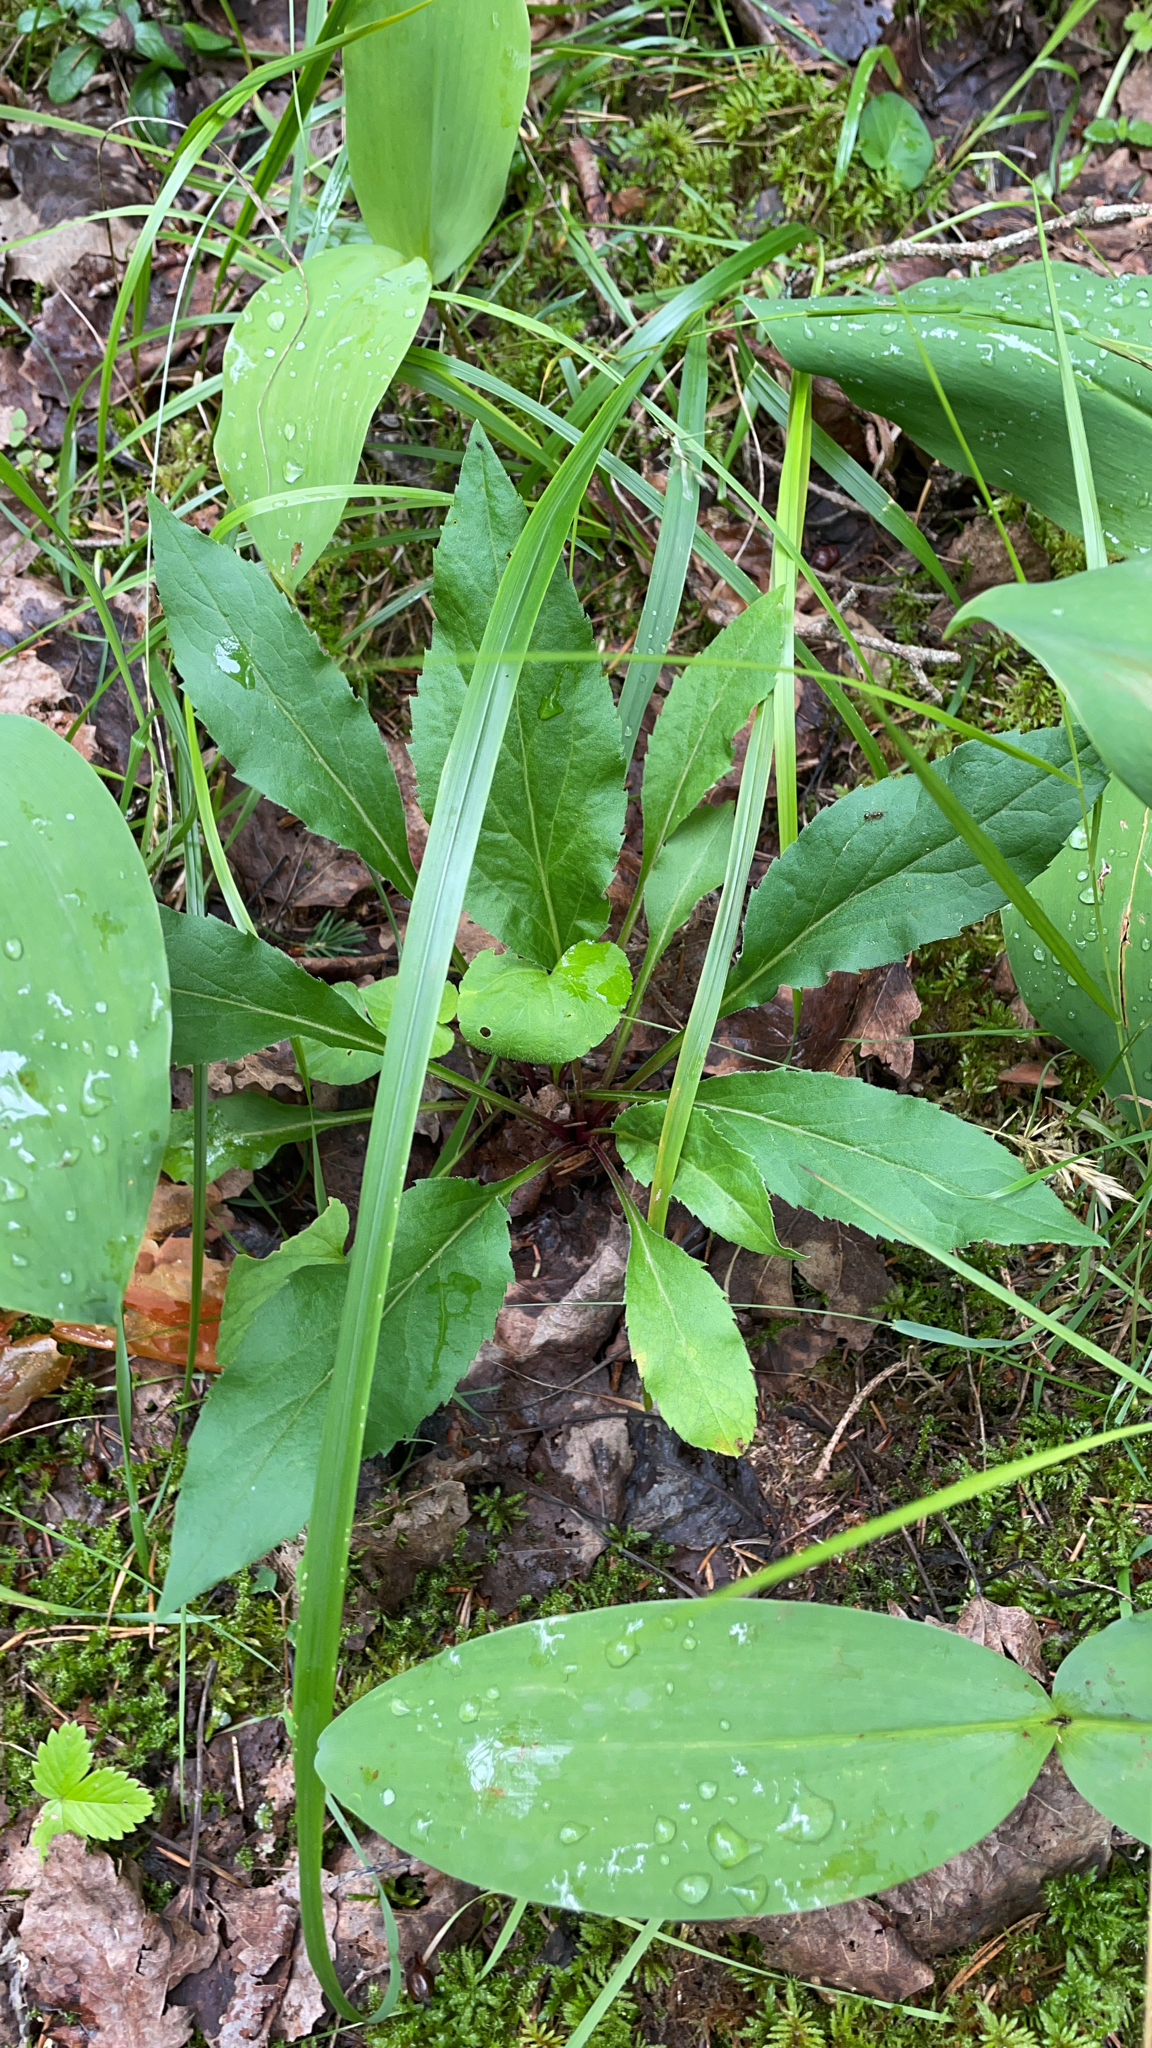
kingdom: Plantae
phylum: Tracheophyta
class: Magnoliopsida
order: Asterales
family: Asteraceae
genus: Solidago
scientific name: Solidago virgaurea
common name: Goldenrod
